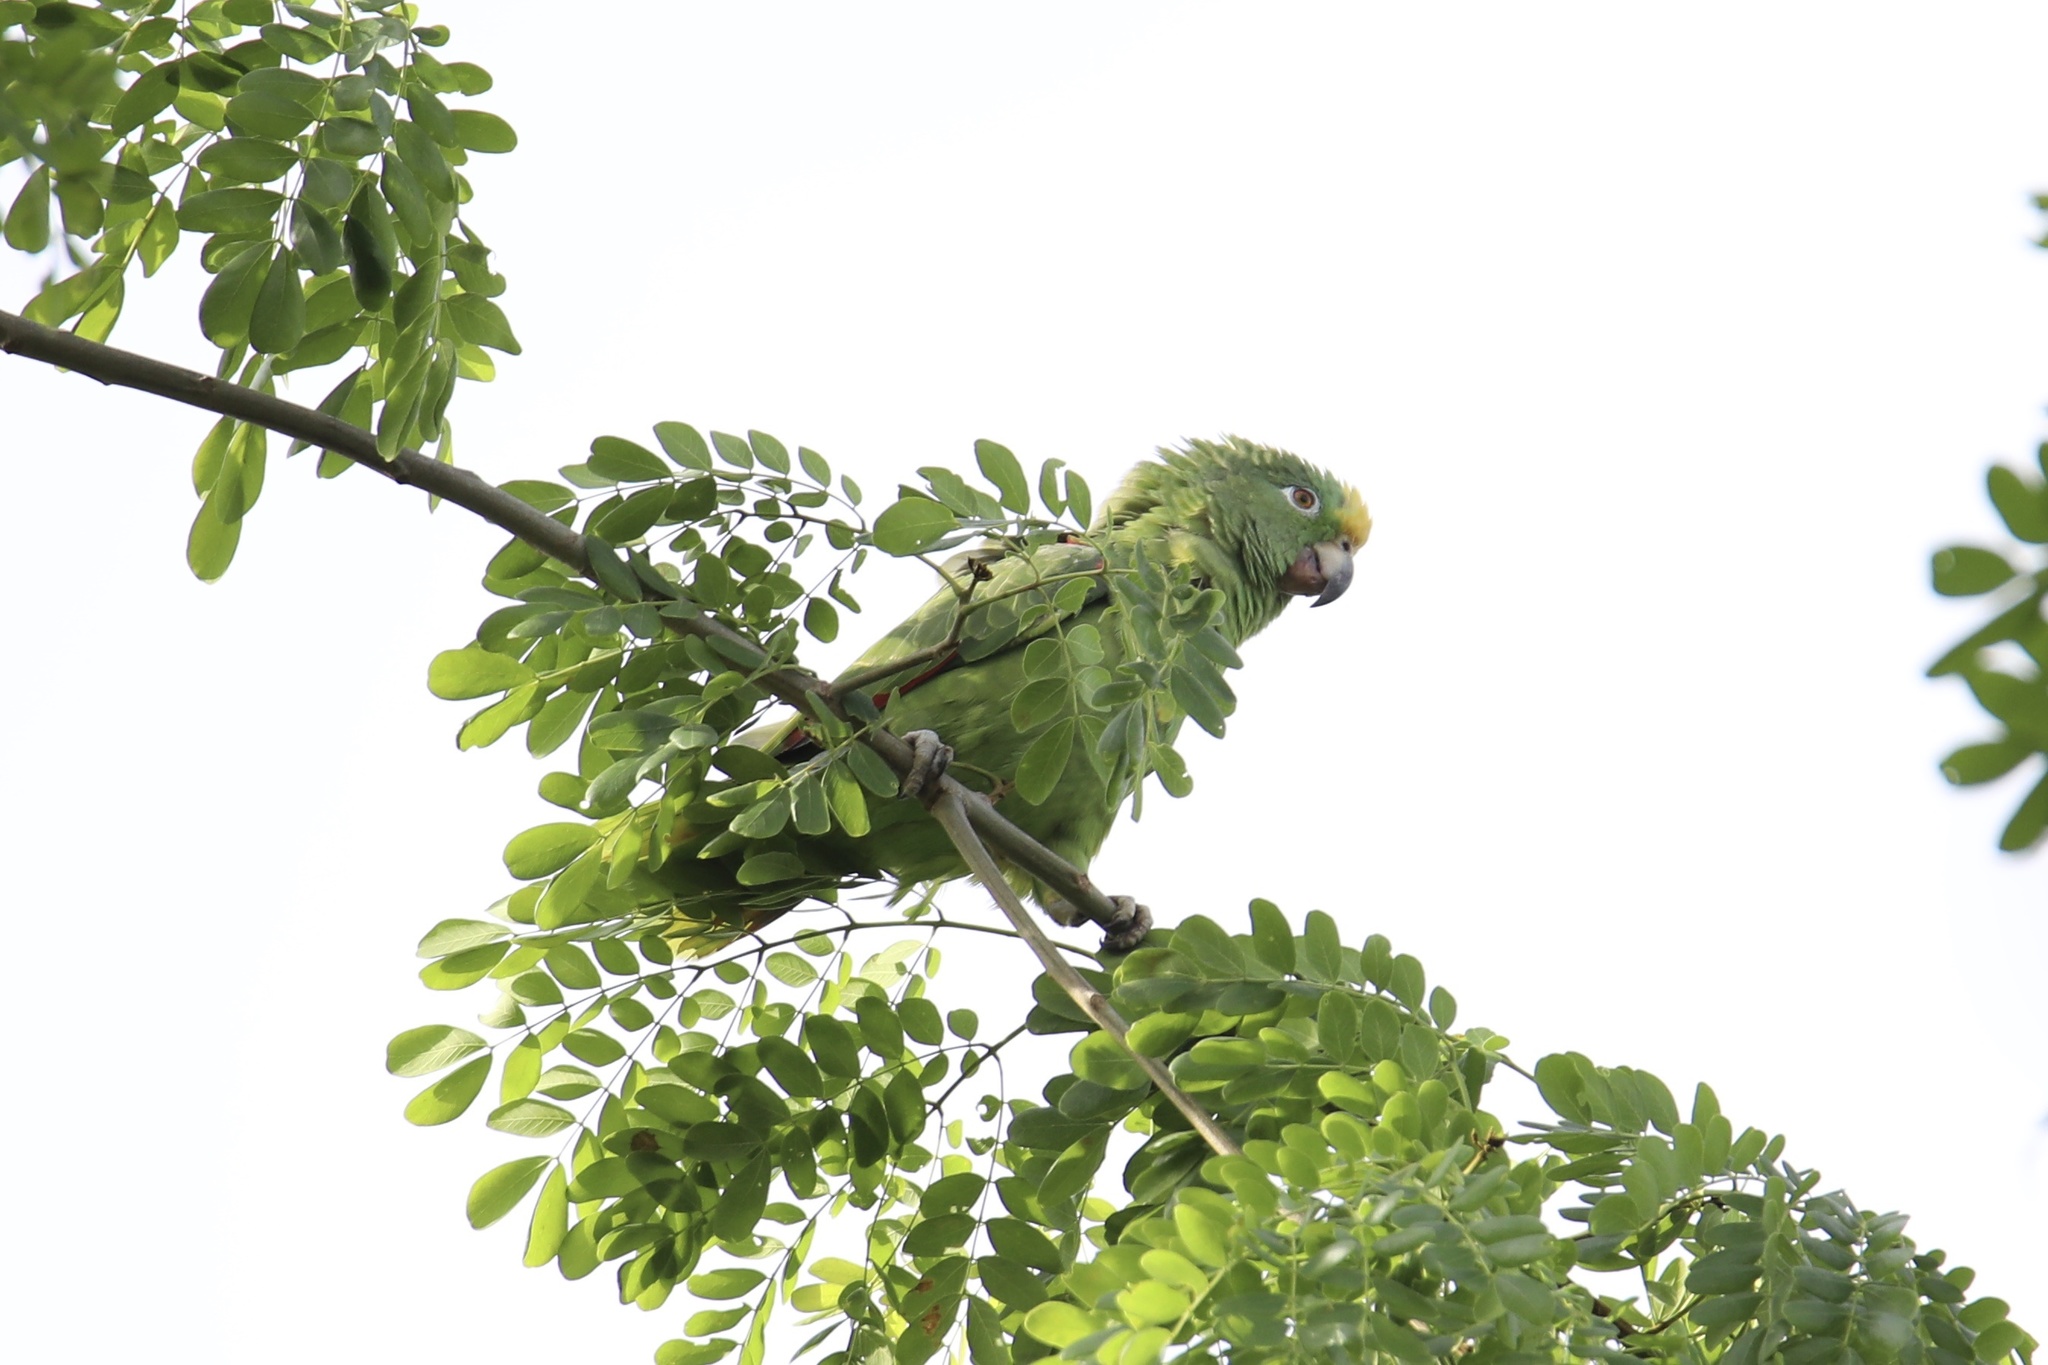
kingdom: Animalia
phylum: Chordata
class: Aves
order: Psittaciformes
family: Psittacidae
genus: Amazona
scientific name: Amazona ochrocephala
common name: Yellow-crowned amazon
